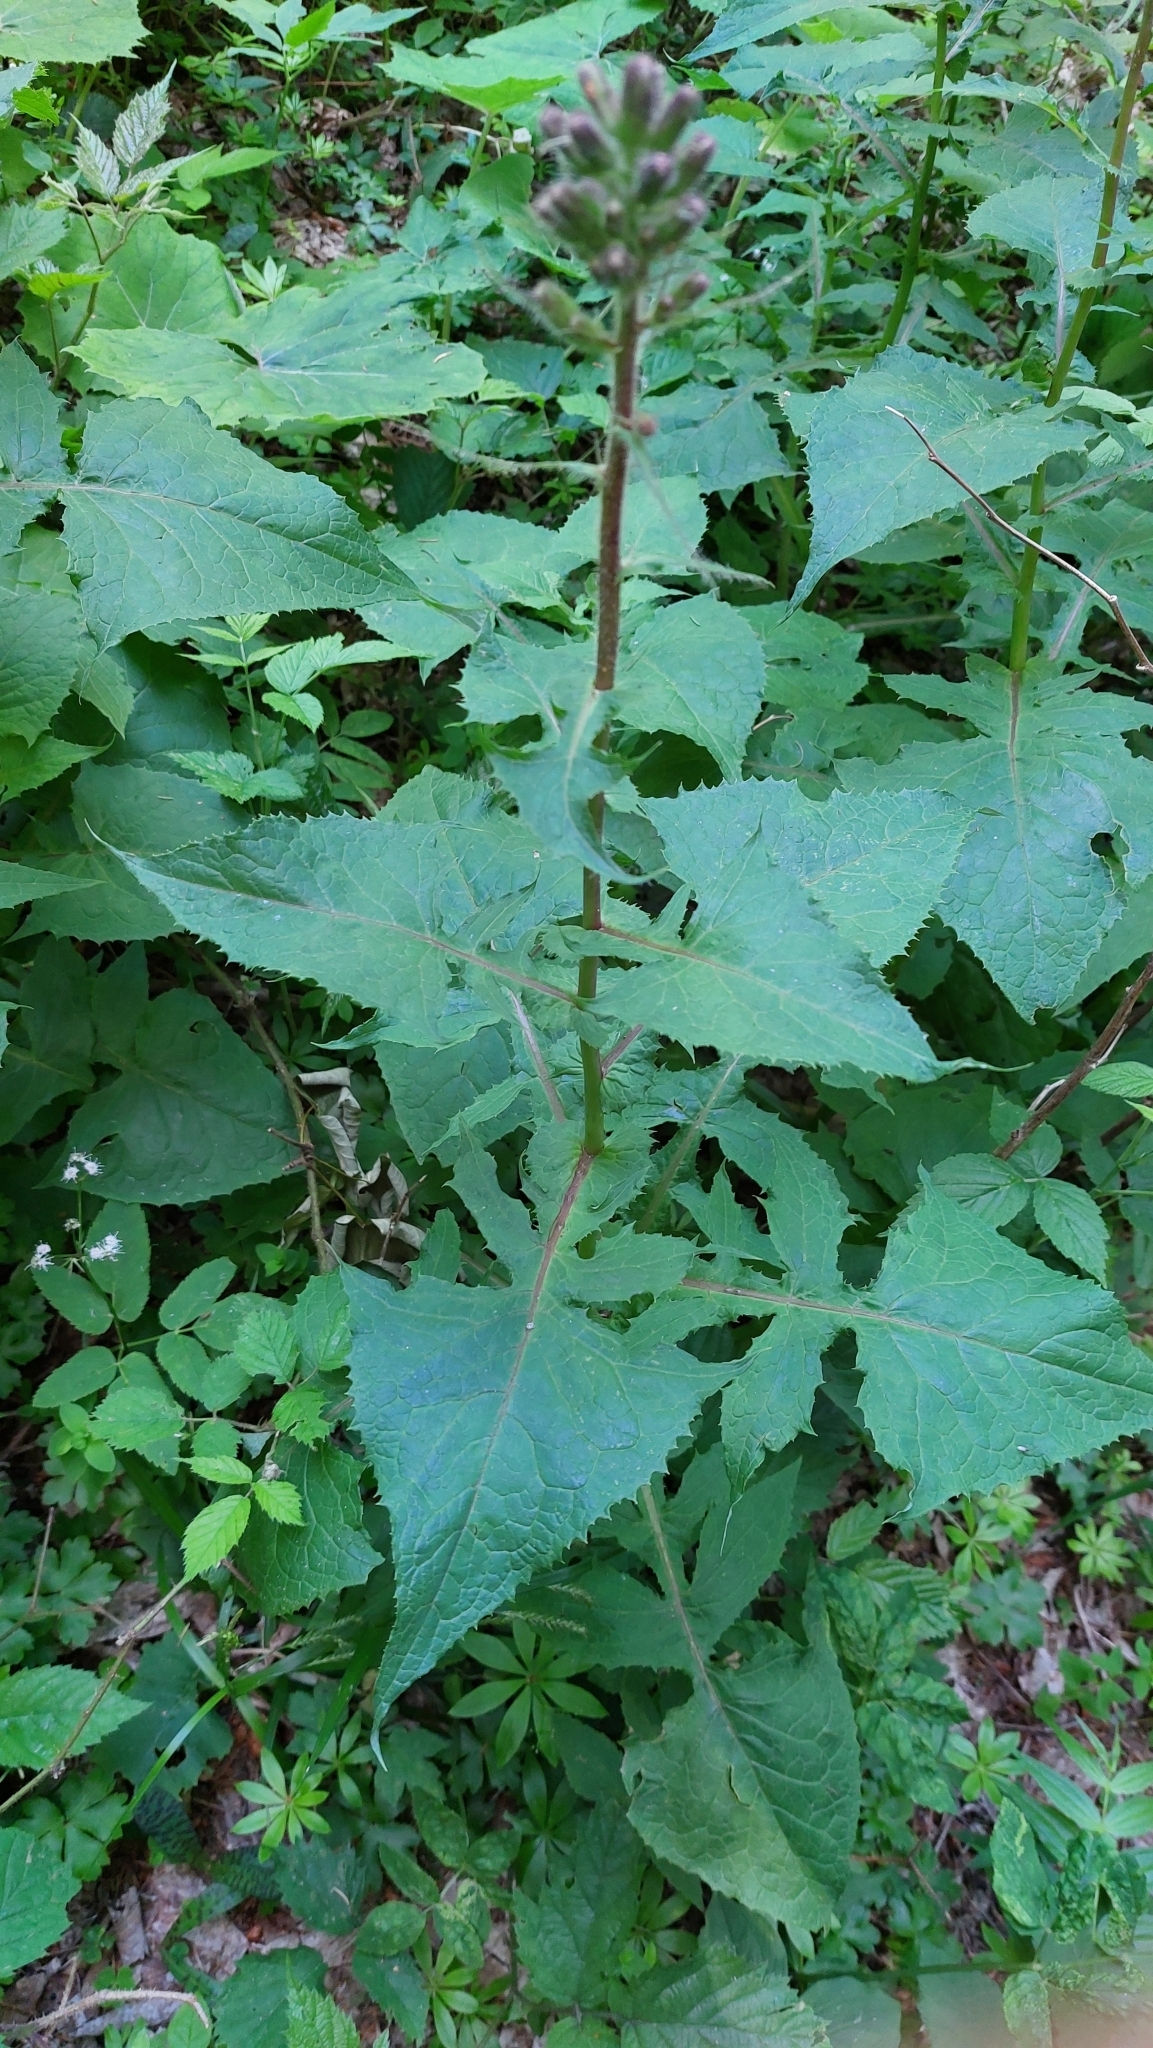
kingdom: Plantae
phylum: Tracheophyta
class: Magnoliopsida
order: Asterales
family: Asteraceae
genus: Cicerbita
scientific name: Cicerbita alpina
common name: Alpine blue-sow-thistle
